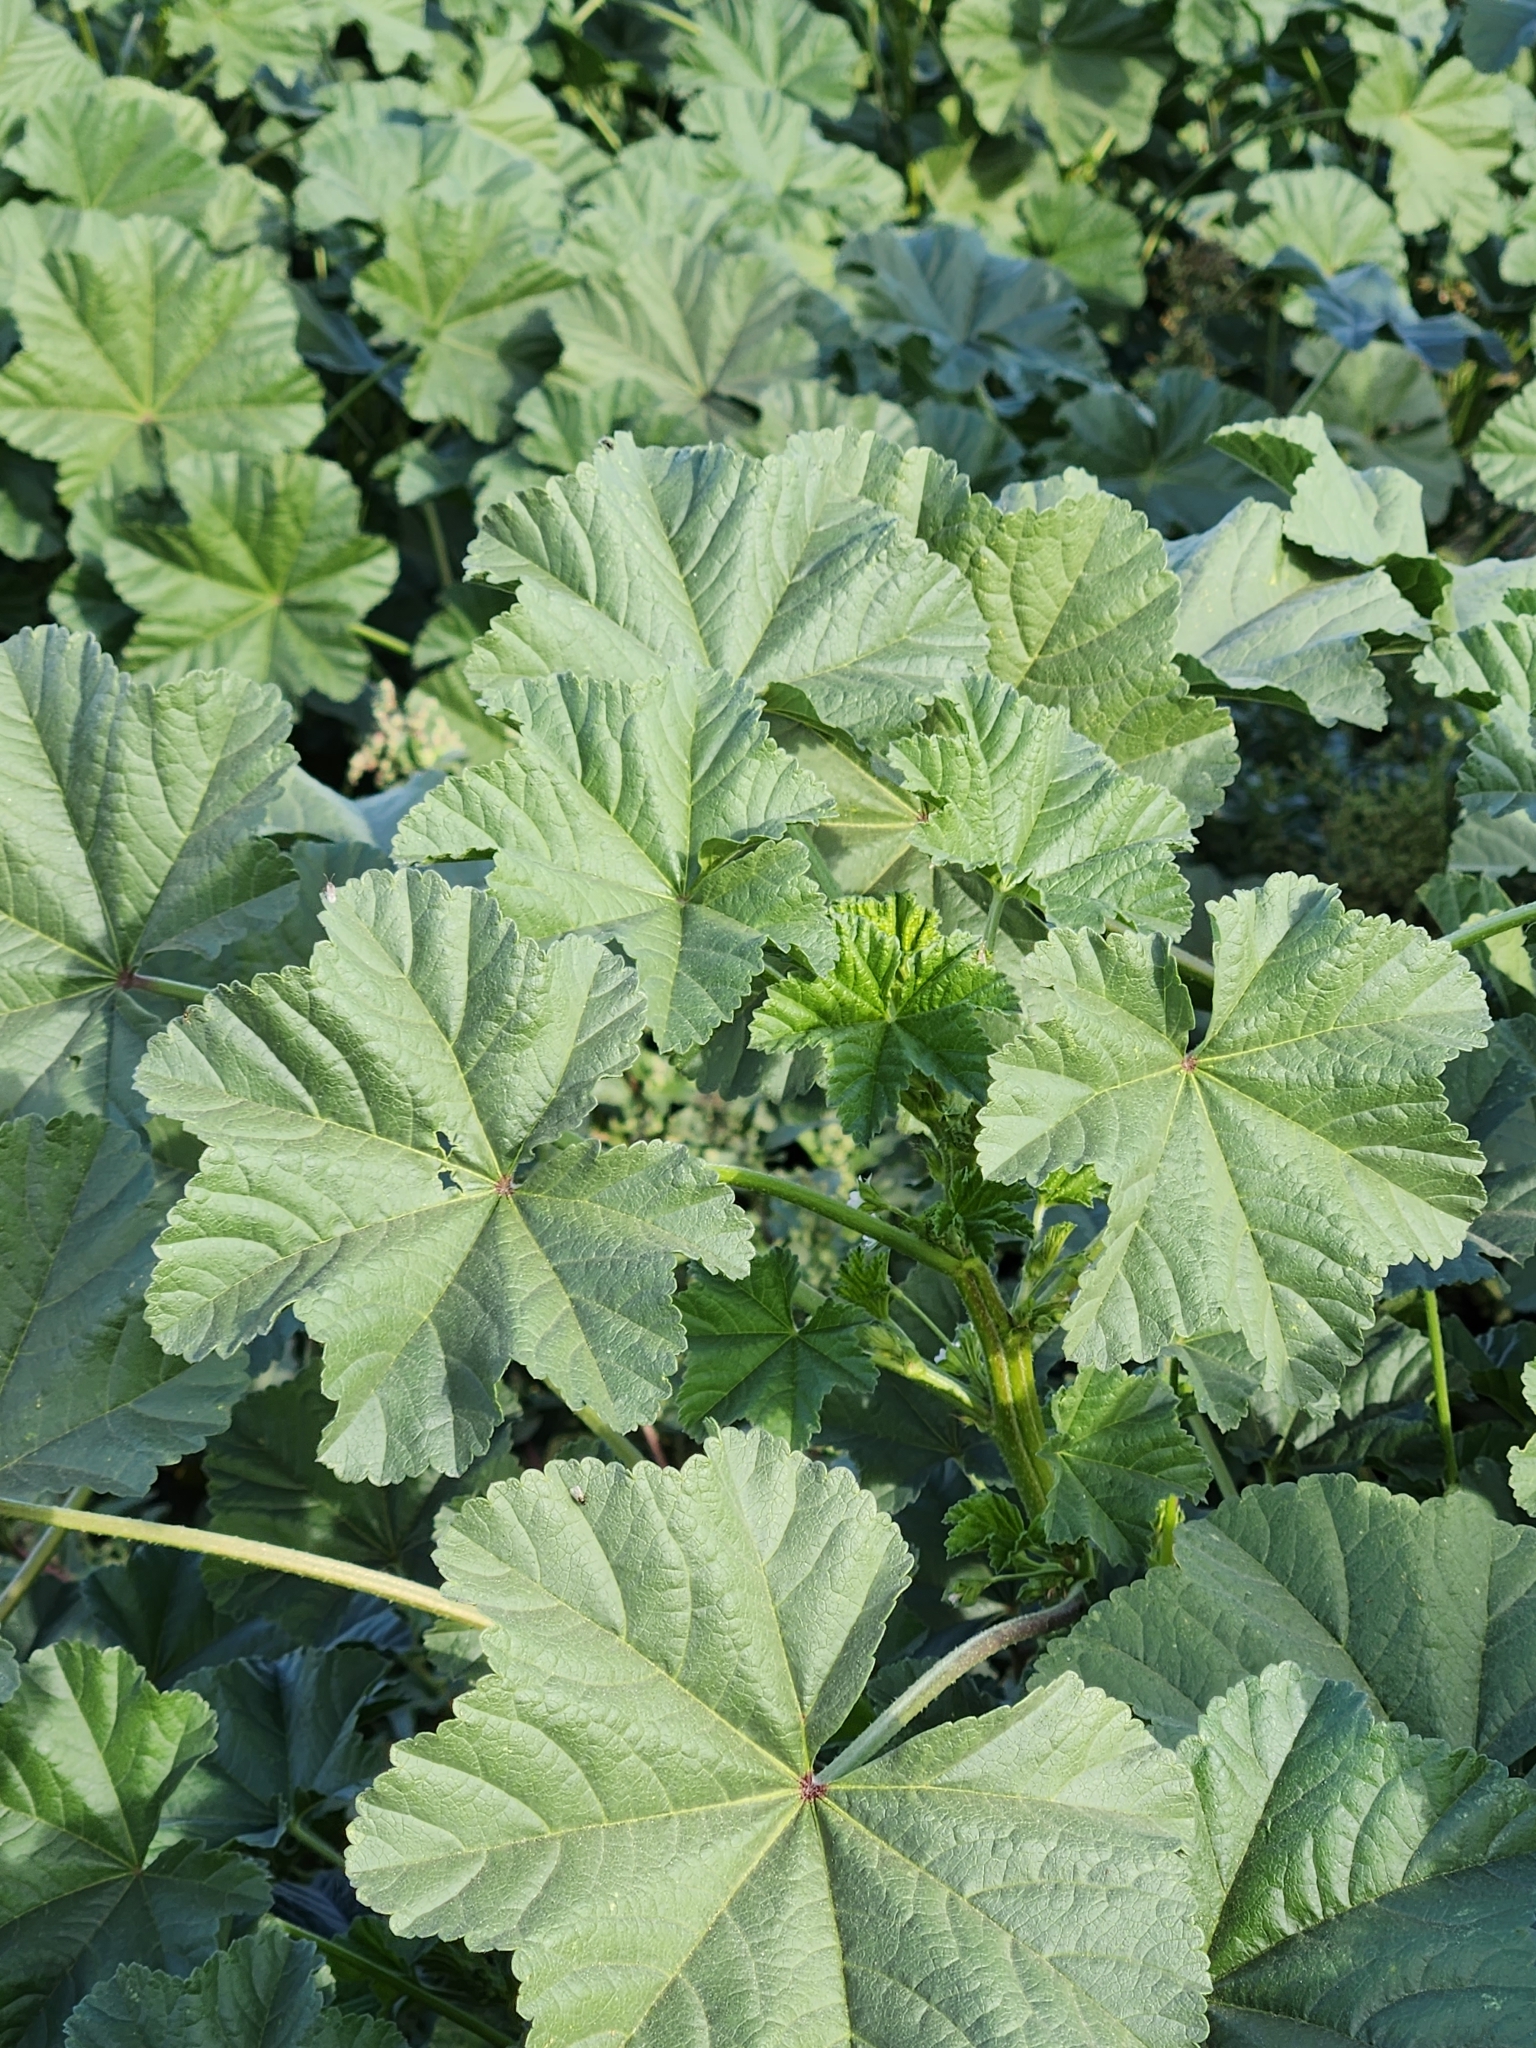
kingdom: Plantae
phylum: Tracheophyta
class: Magnoliopsida
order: Malvales
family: Malvaceae
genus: Malva
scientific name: Malva parviflora
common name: Least mallow
